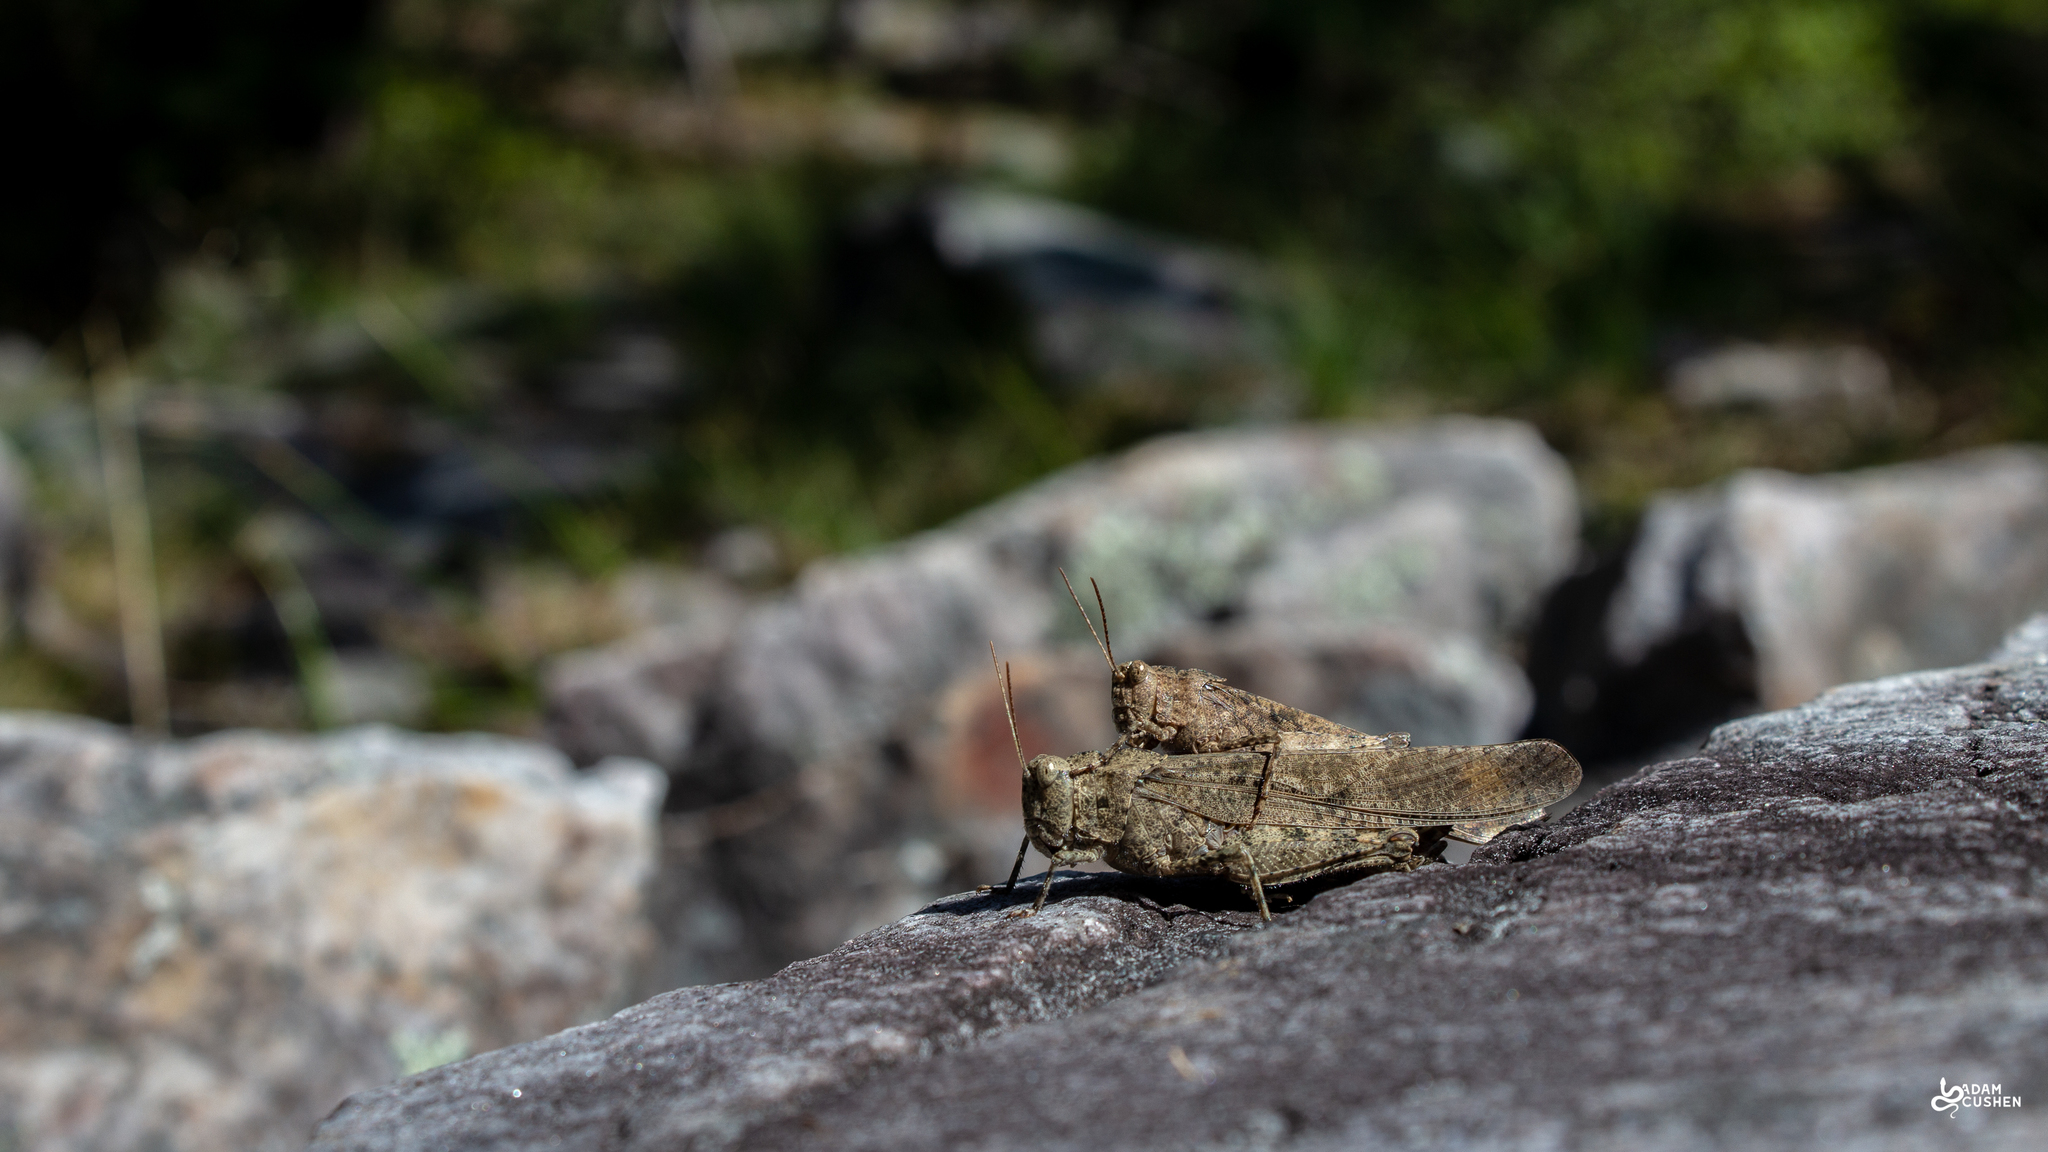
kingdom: Animalia
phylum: Arthropoda
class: Insecta
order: Orthoptera
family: Acrididae
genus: Dissosteira
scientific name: Dissosteira carolina
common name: Carolina grasshopper
